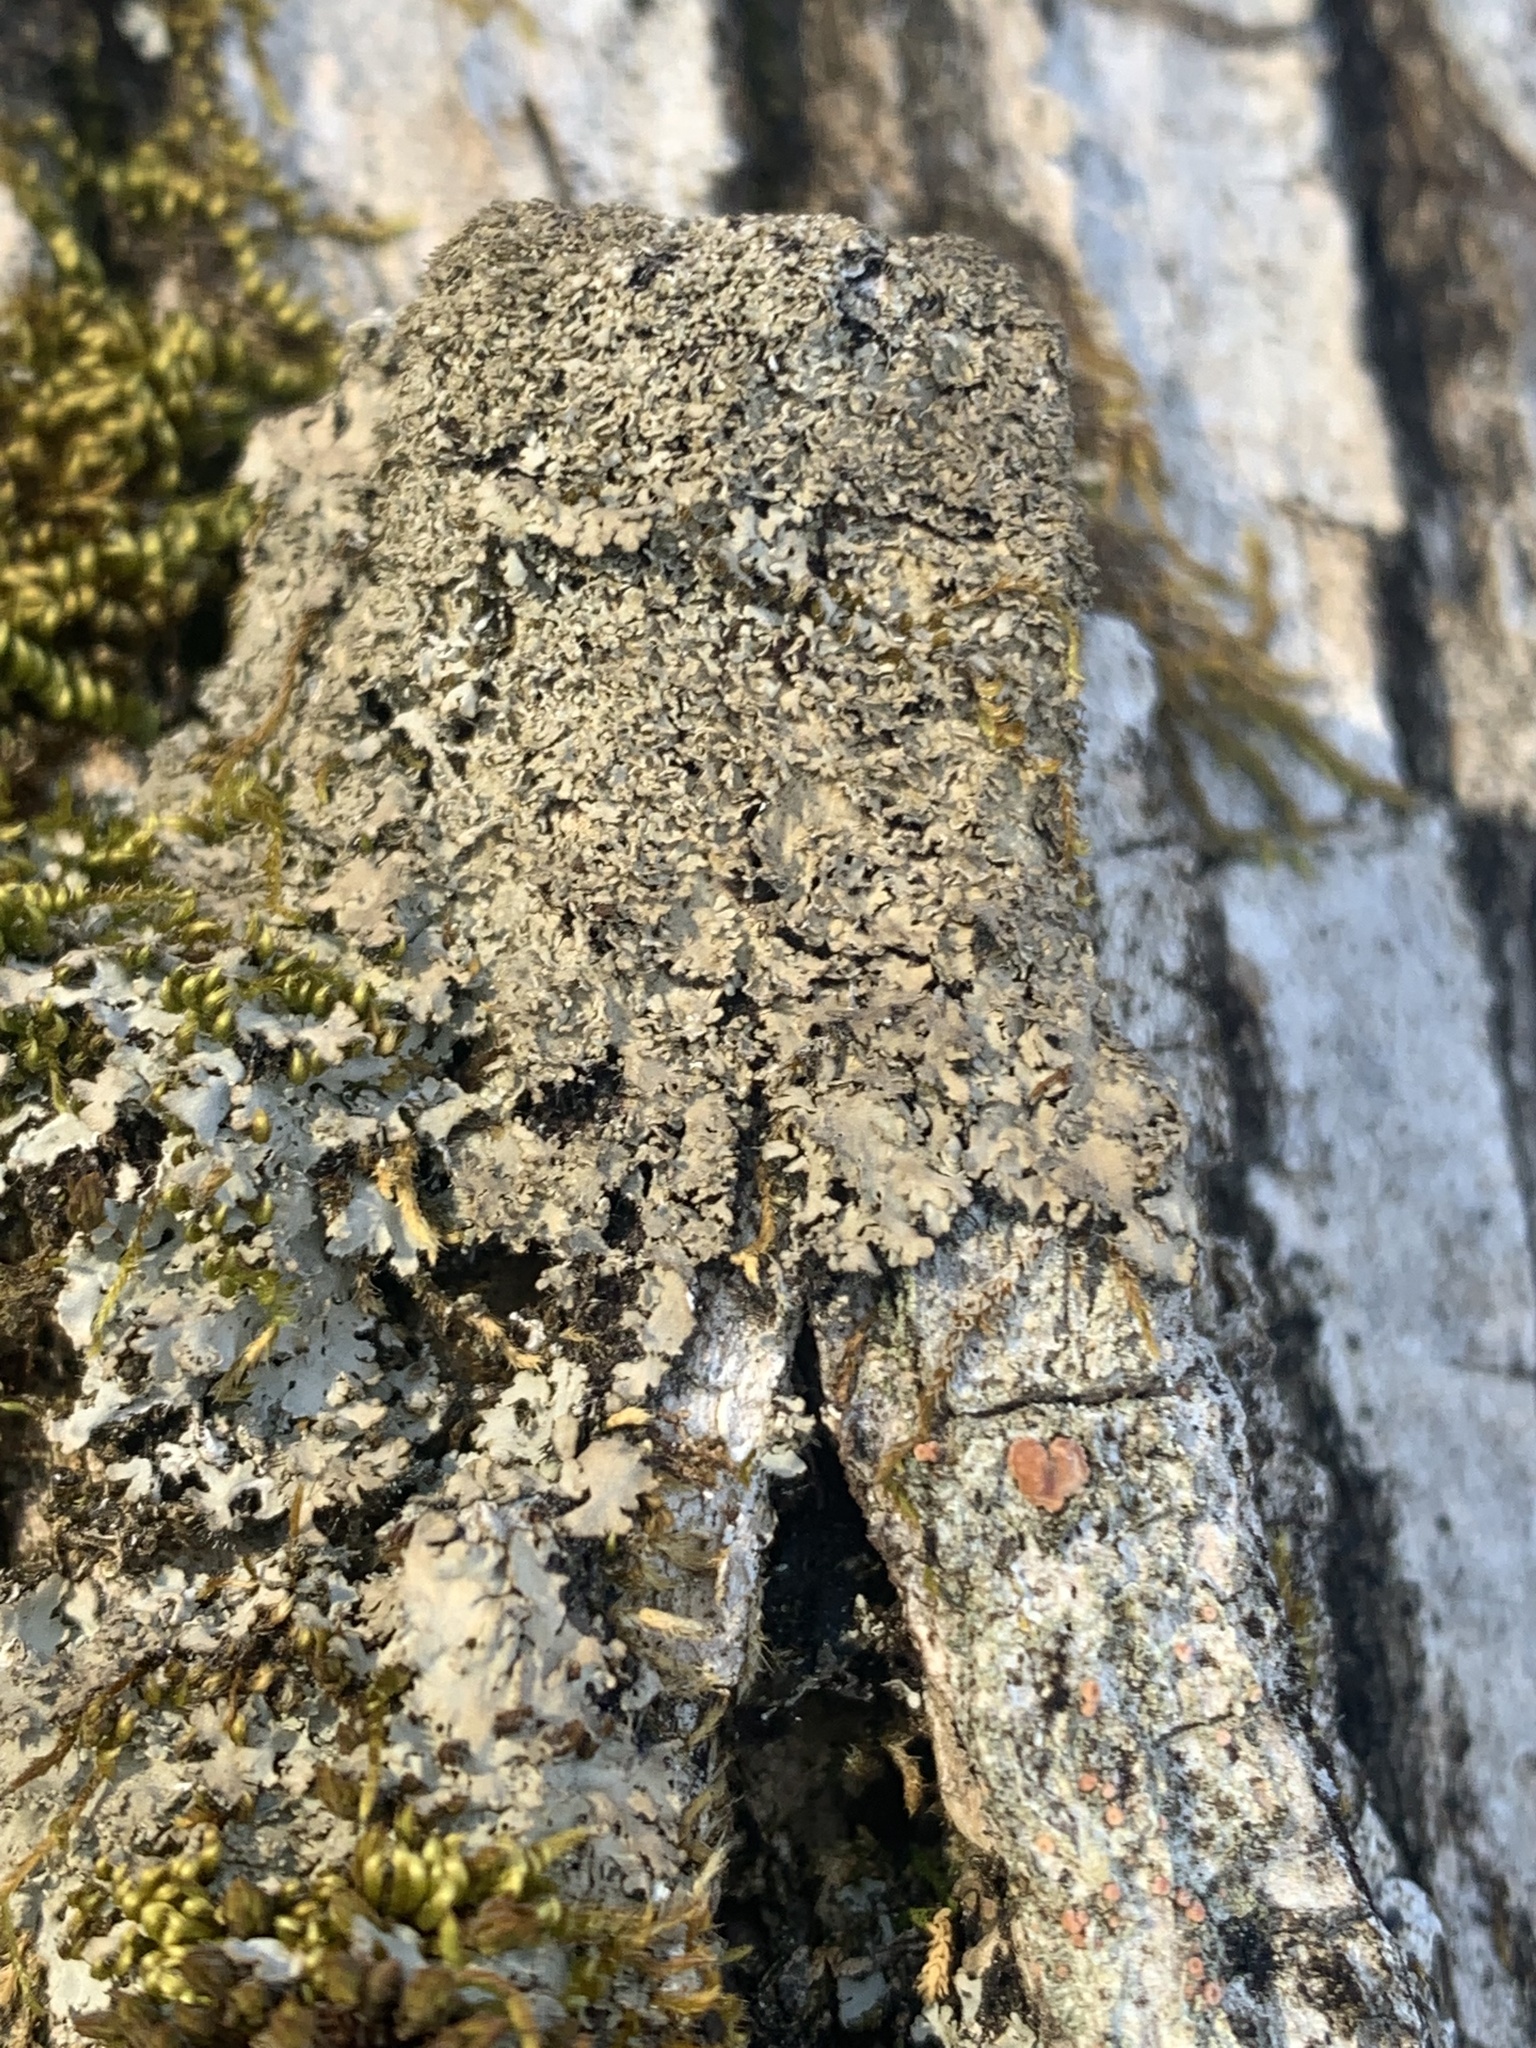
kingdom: Fungi
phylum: Ascomycota
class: Lecanoromycetes
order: Caliciales
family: Physciaceae
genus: Phaeophyscia
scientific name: Phaeophyscia squarrosa
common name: Scaly shadow lichen
